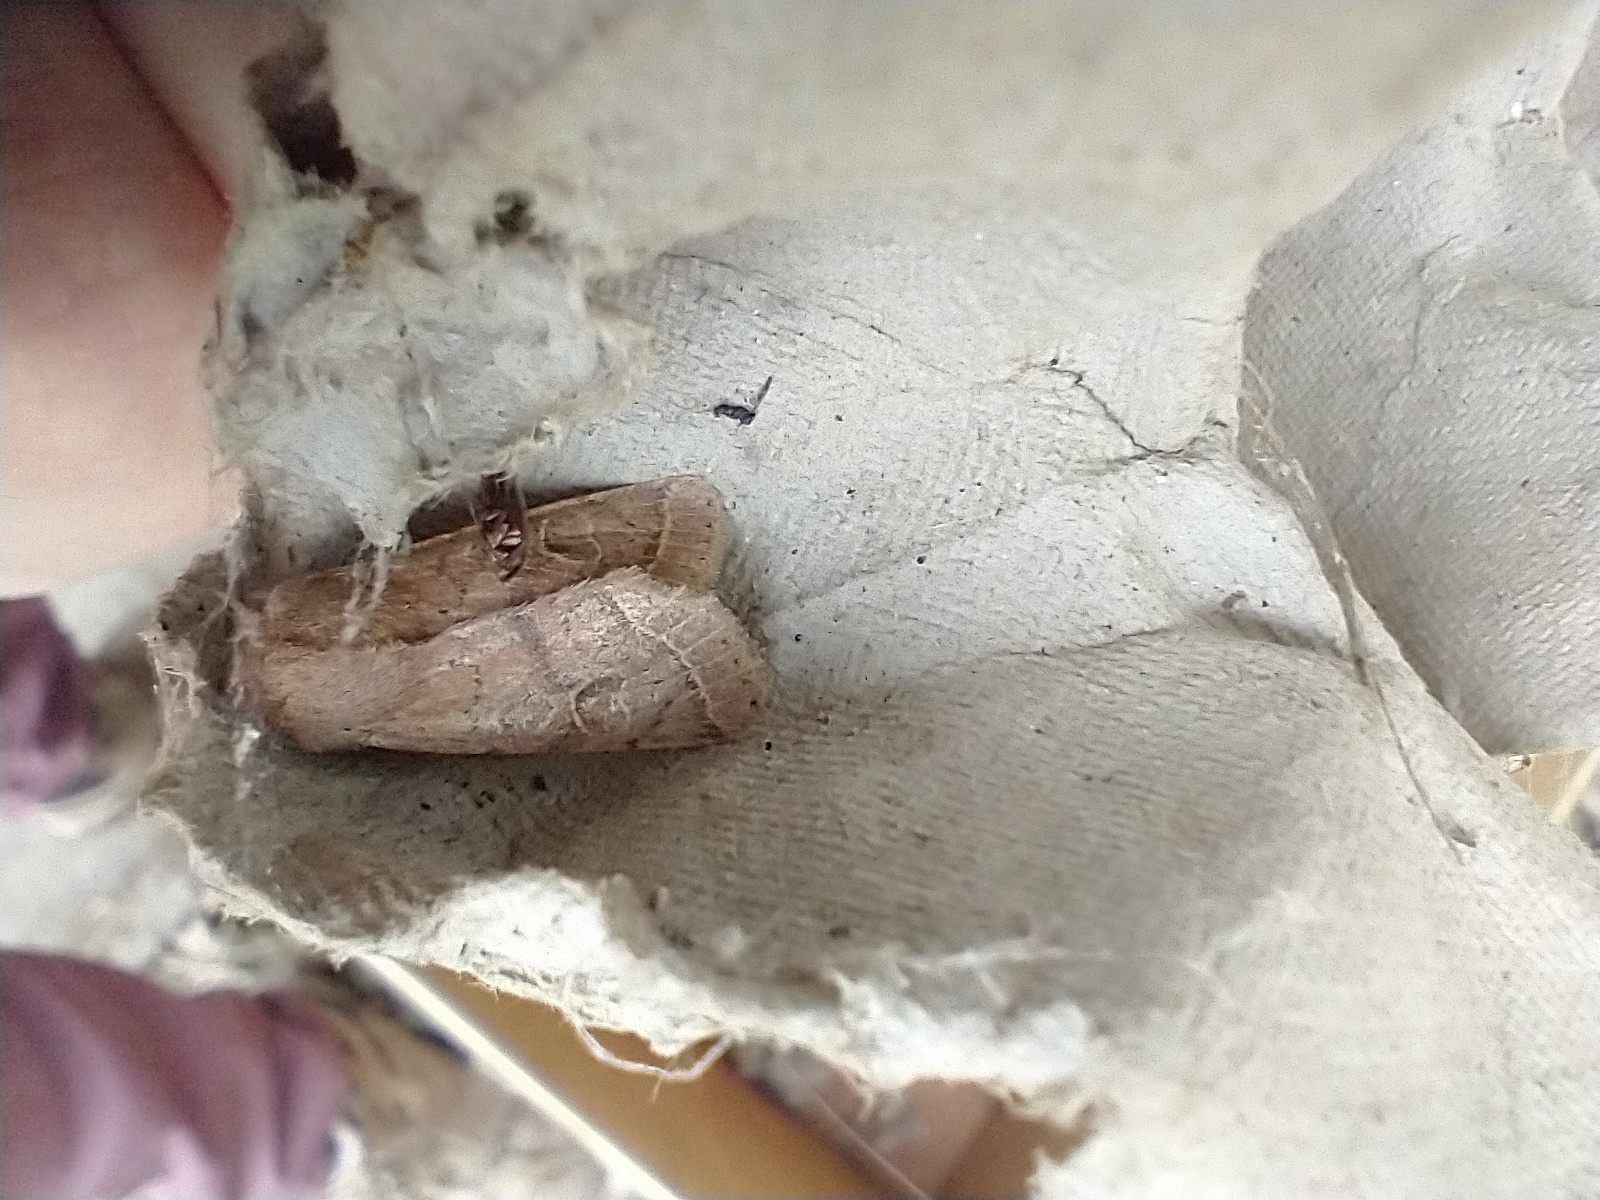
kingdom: Animalia
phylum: Arthropoda
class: Insecta
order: Lepidoptera
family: Noctuidae
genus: Orthosia
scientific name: Orthosia cerasi
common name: Common quaker
